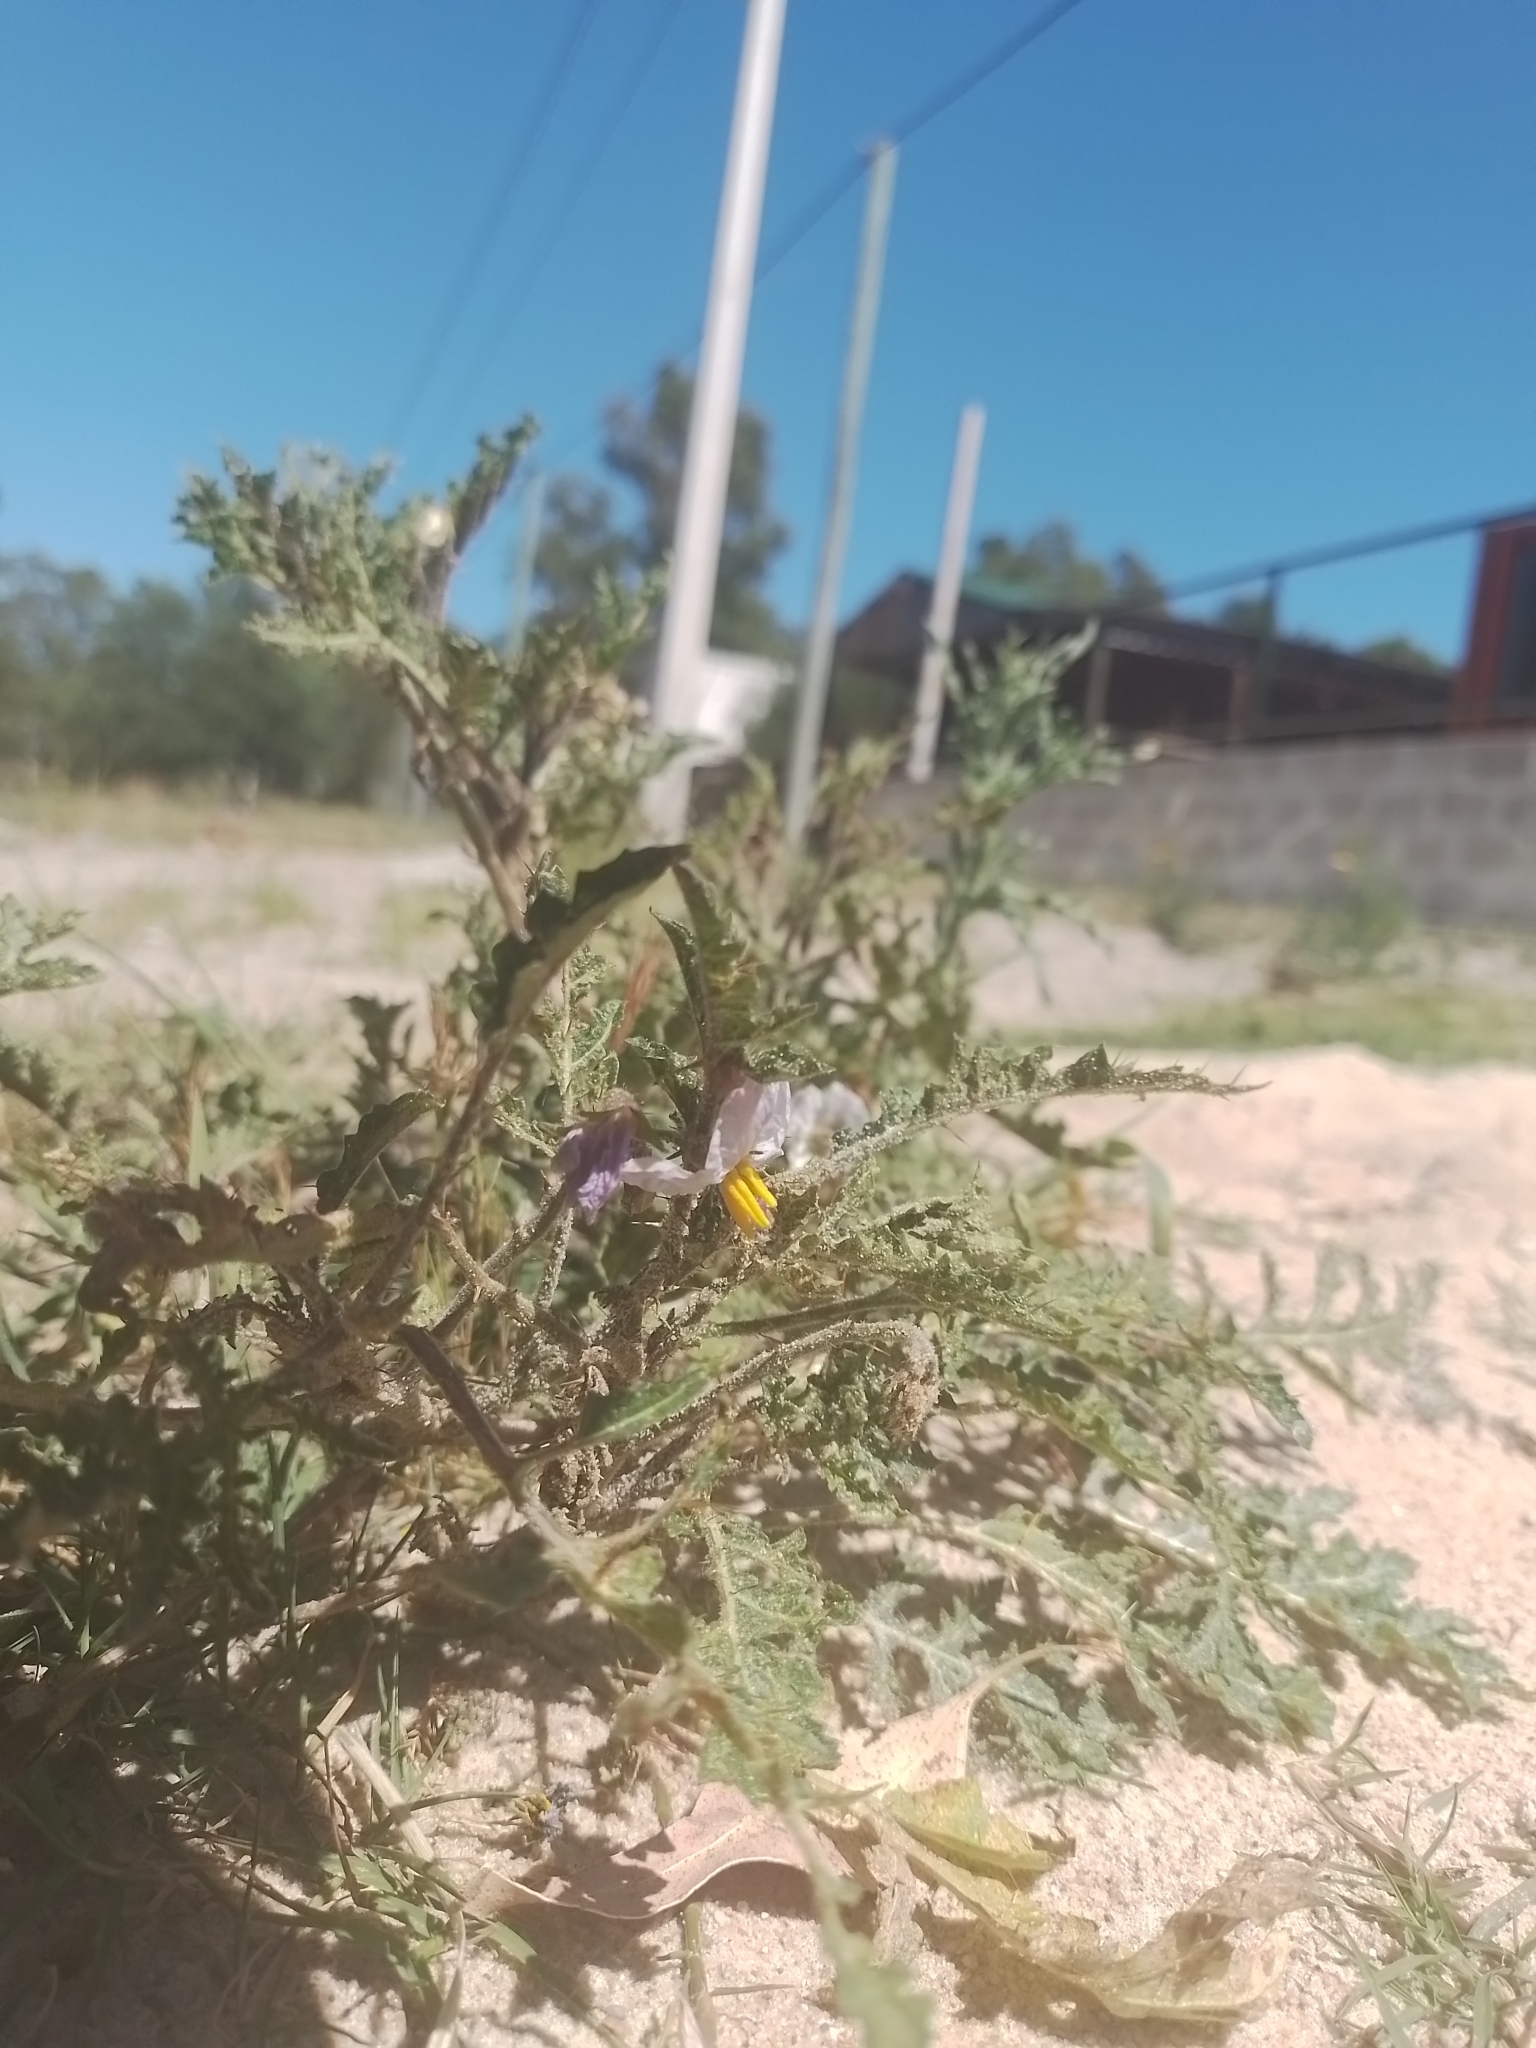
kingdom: Plantae
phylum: Tracheophyta
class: Magnoliopsida
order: Solanales
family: Solanaceae
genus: Solanum
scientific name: Solanum sisymbriifolium
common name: Red buffalo-bur
